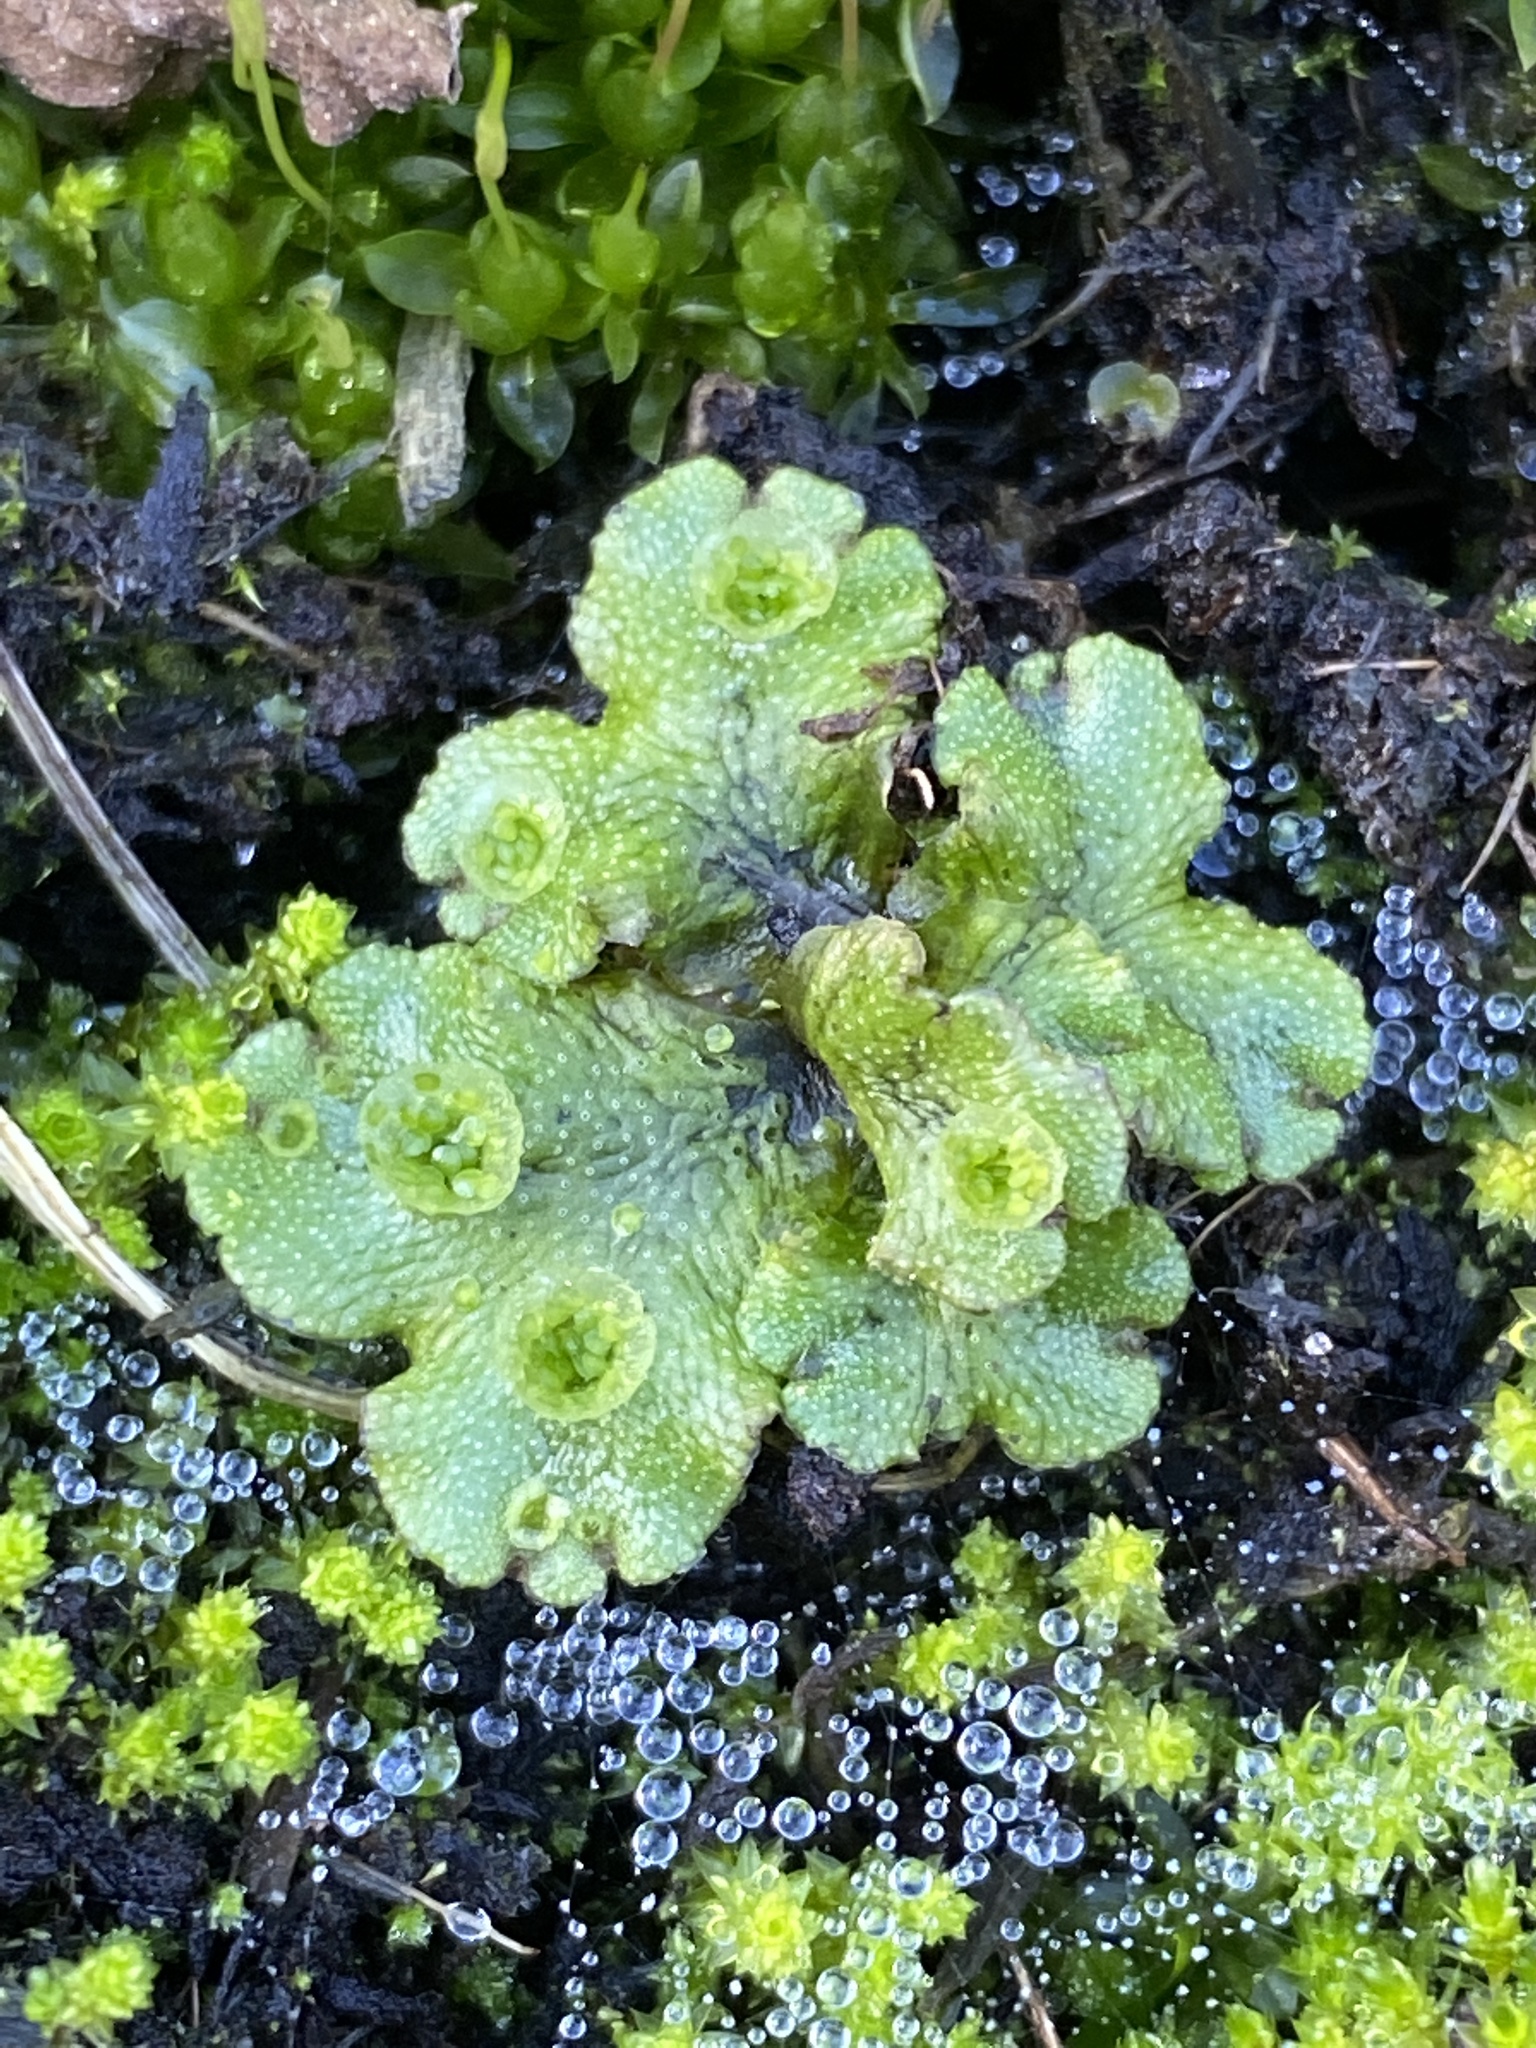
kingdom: Plantae
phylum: Marchantiophyta
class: Marchantiopsida
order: Marchantiales
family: Marchantiaceae
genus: Marchantia
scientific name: Marchantia polymorpha
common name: Common liverwort
